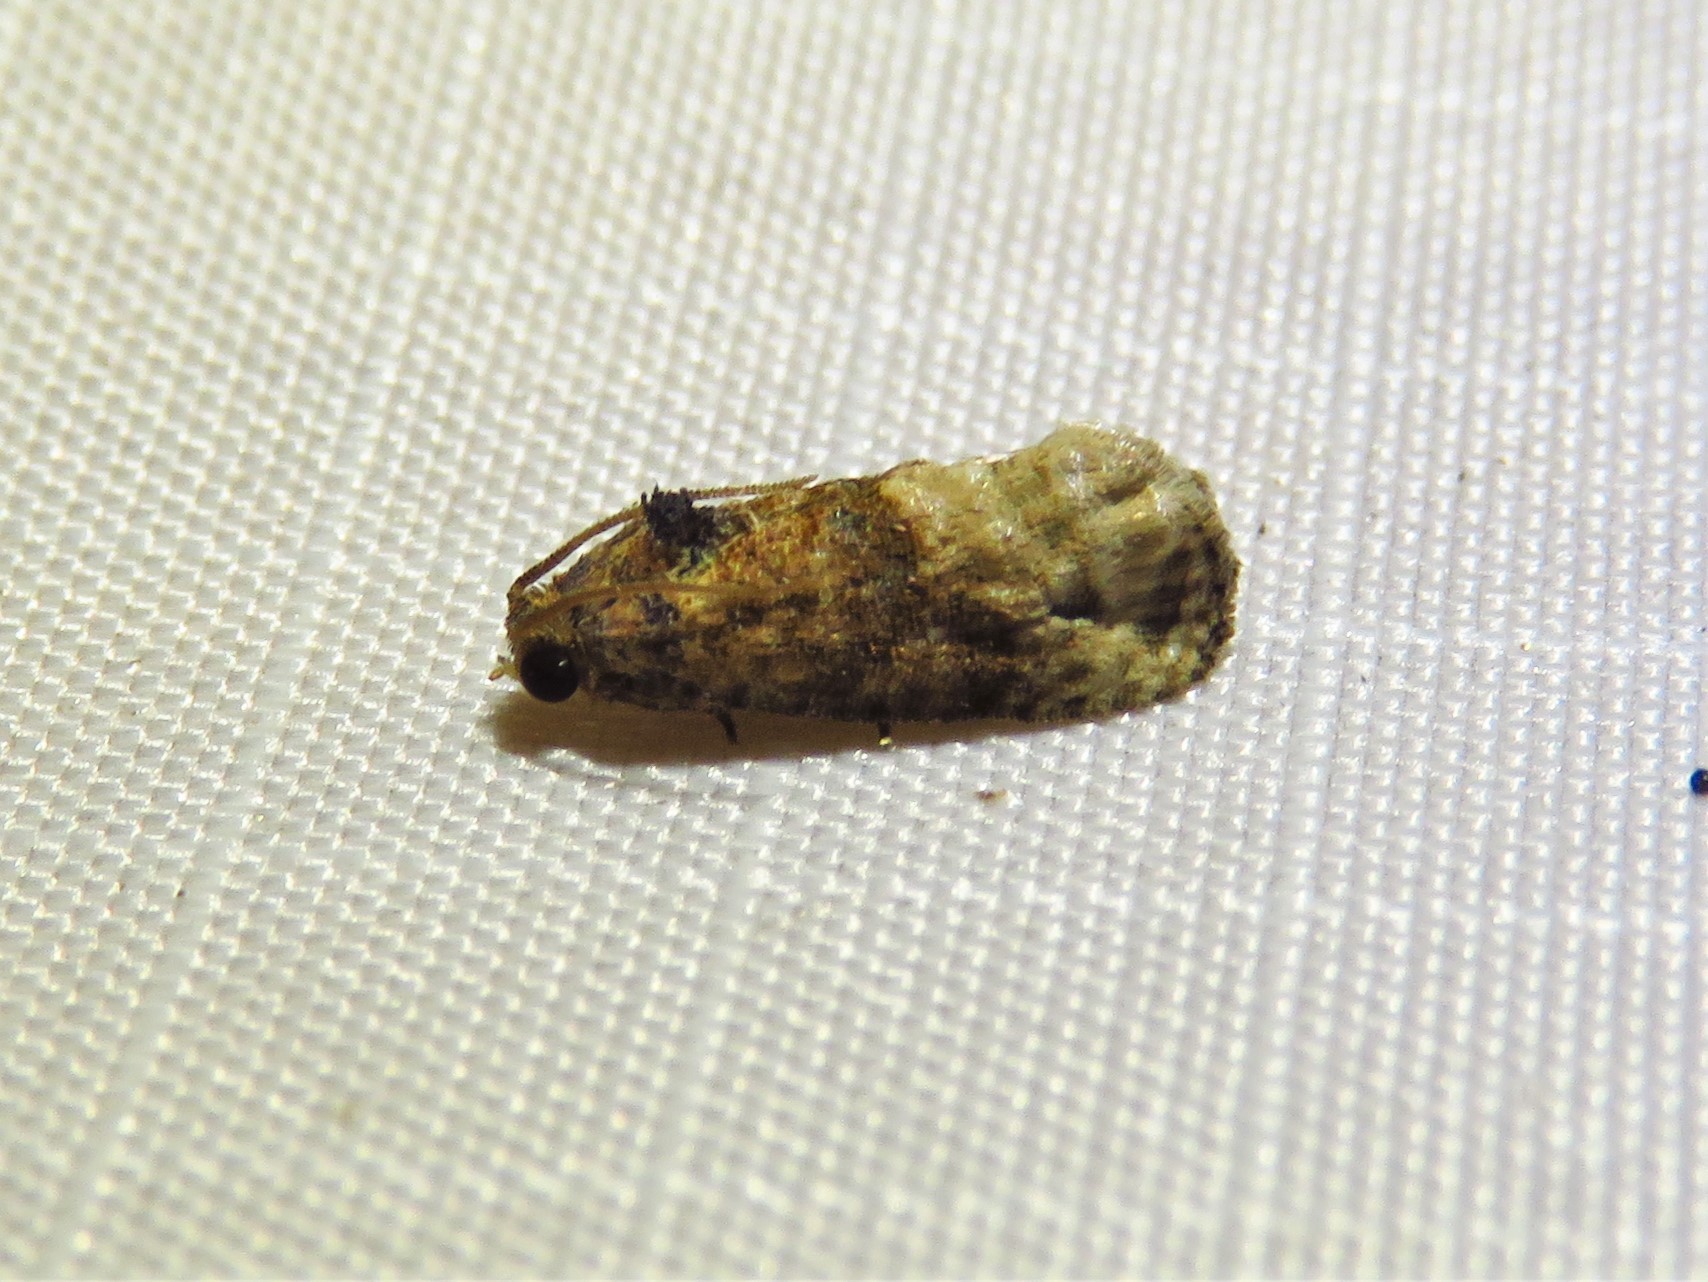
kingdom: Animalia
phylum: Arthropoda
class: Insecta
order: Lepidoptera
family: Tortricidae
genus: Ecdytolopha
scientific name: Ecdytolopha mana
